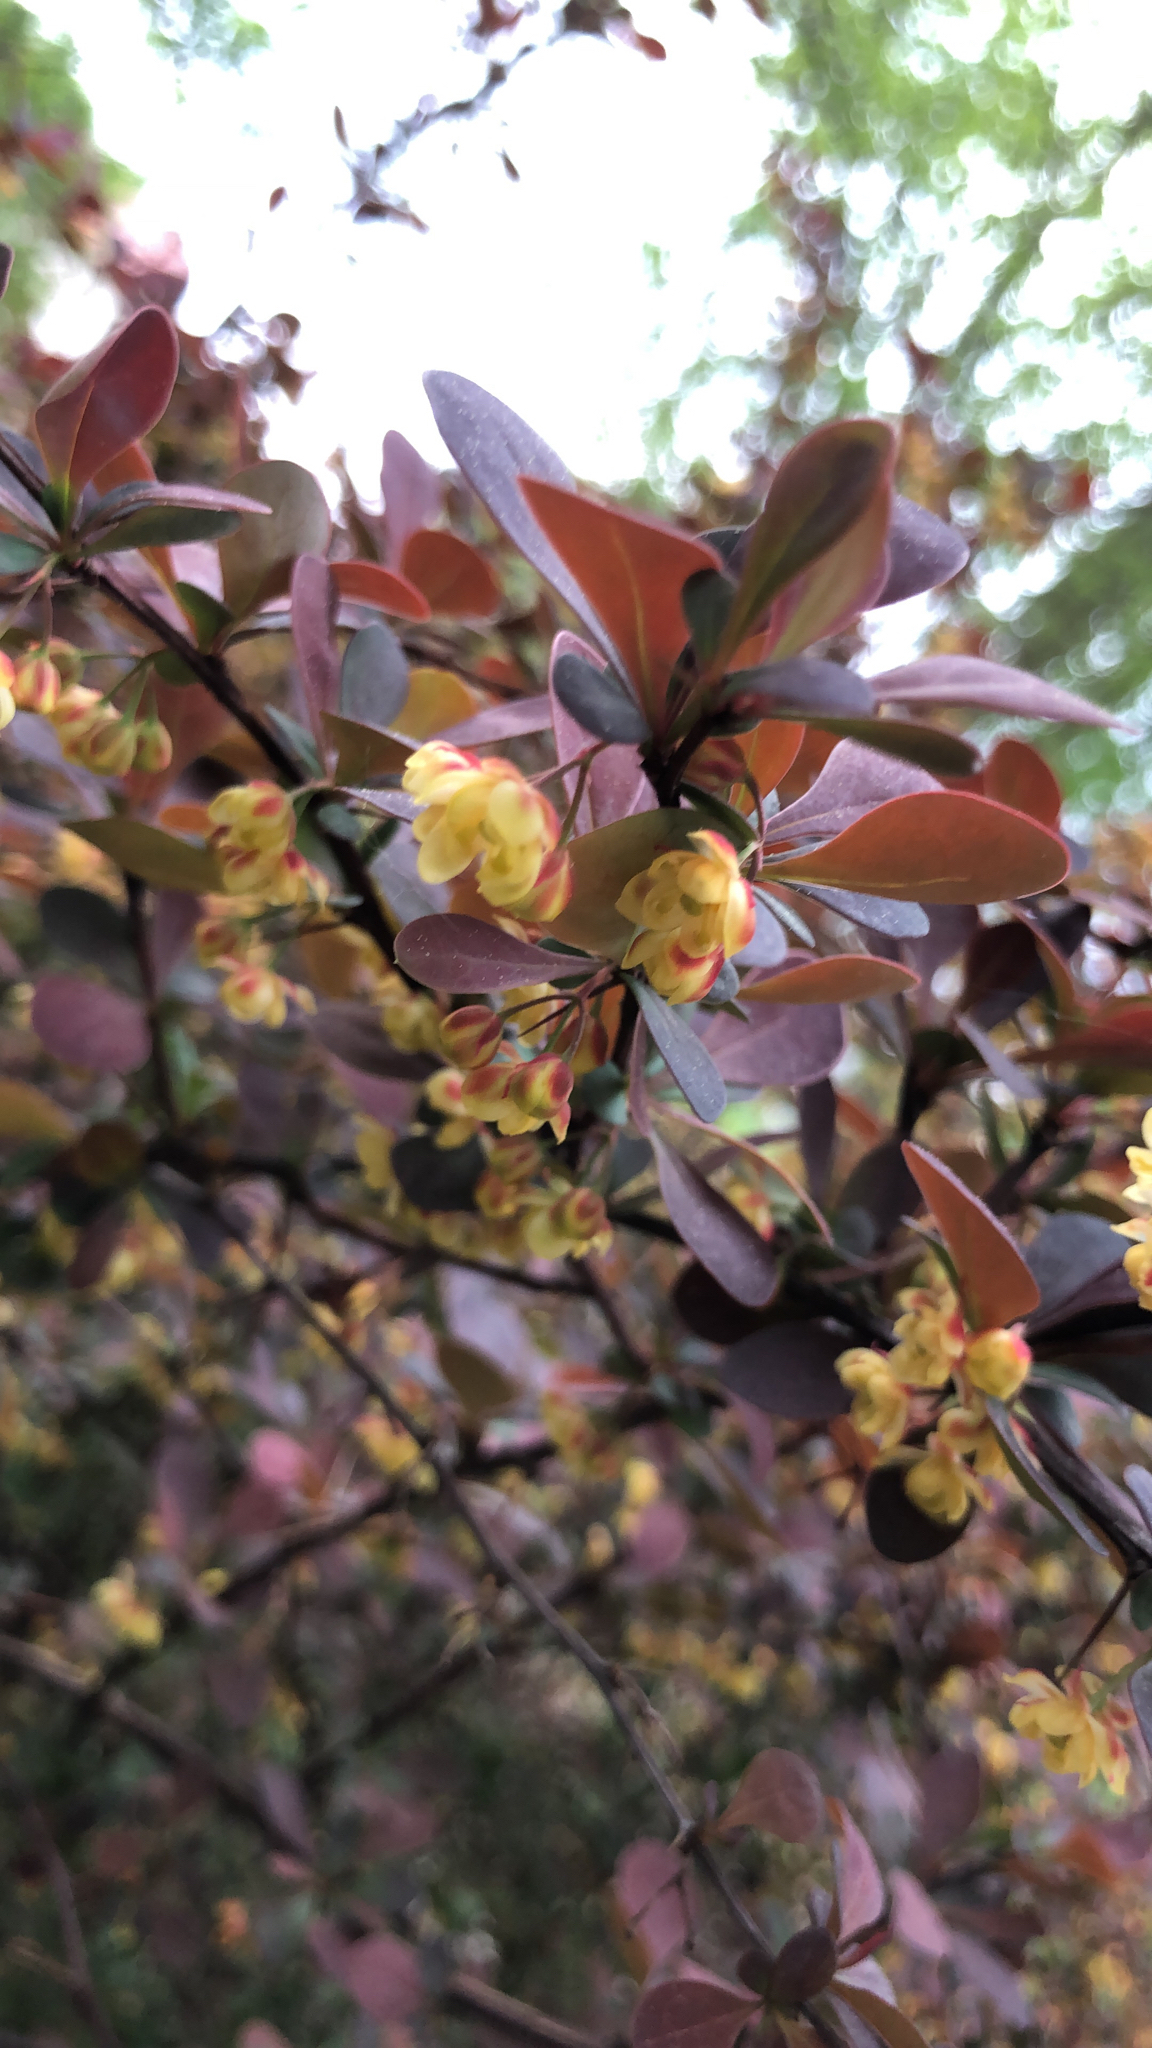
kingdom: Plantae
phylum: Tracheophyta
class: Magnoliopsida
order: Ranunculales
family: Berberidaceae
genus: Berberis
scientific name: Berberis thunbergii
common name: Japanese barberry
